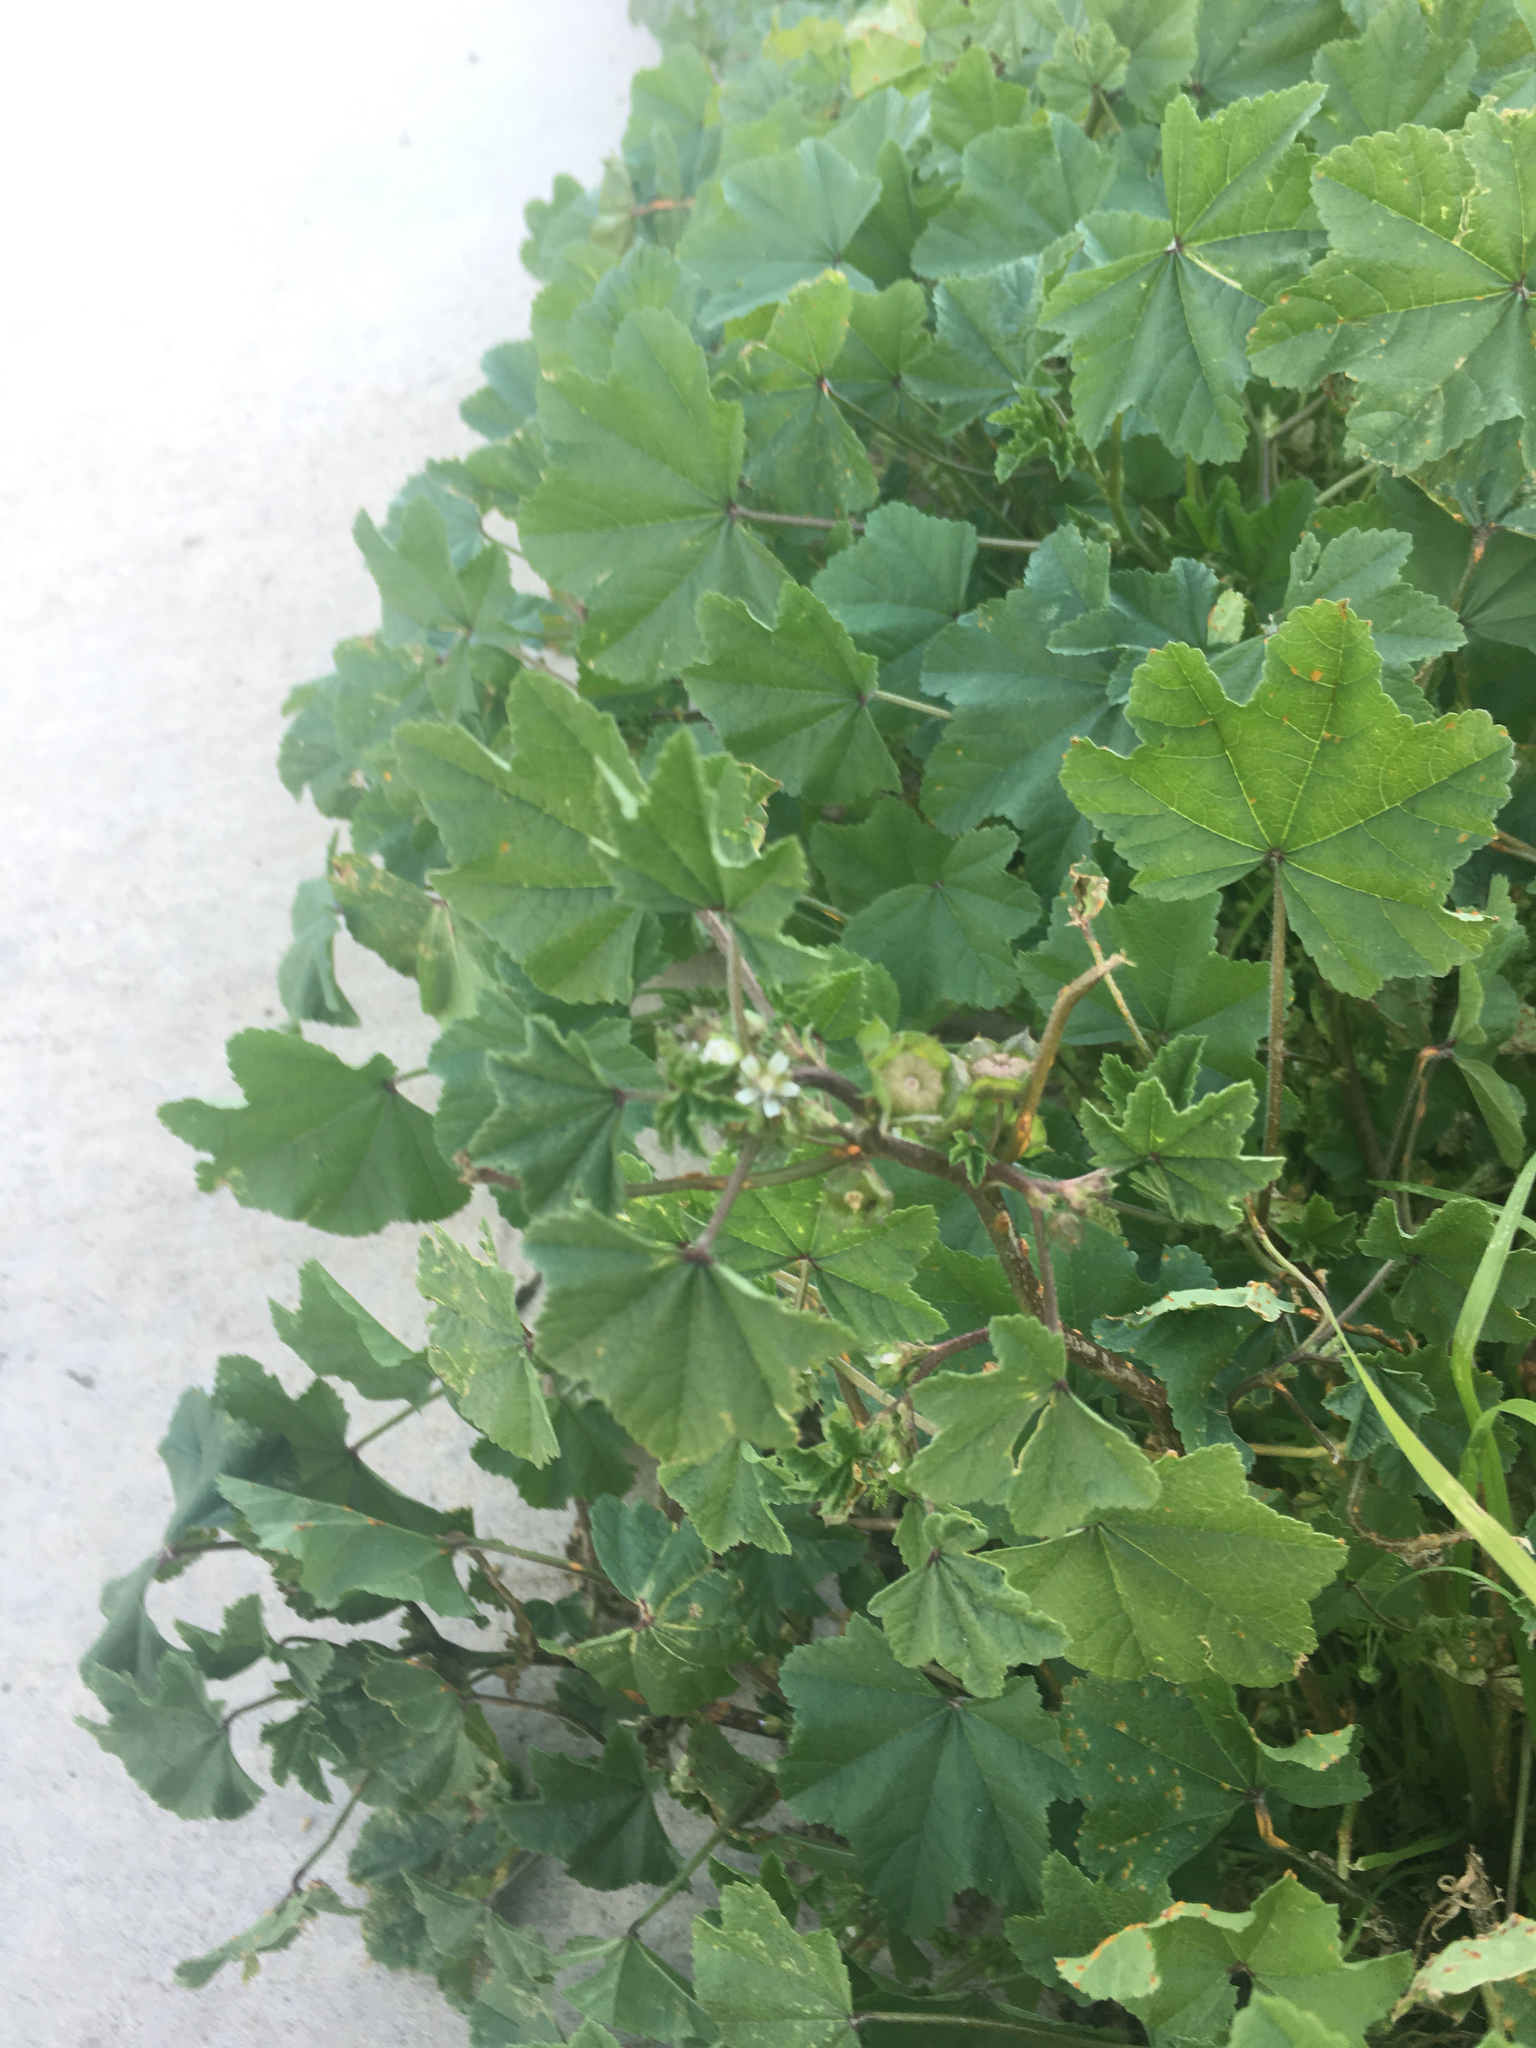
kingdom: Plantae
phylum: Tracheophyta
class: Magnoliopsida
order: Malvales
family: Malvaceae
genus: Malva
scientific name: Malva parviflora
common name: Least mallow
